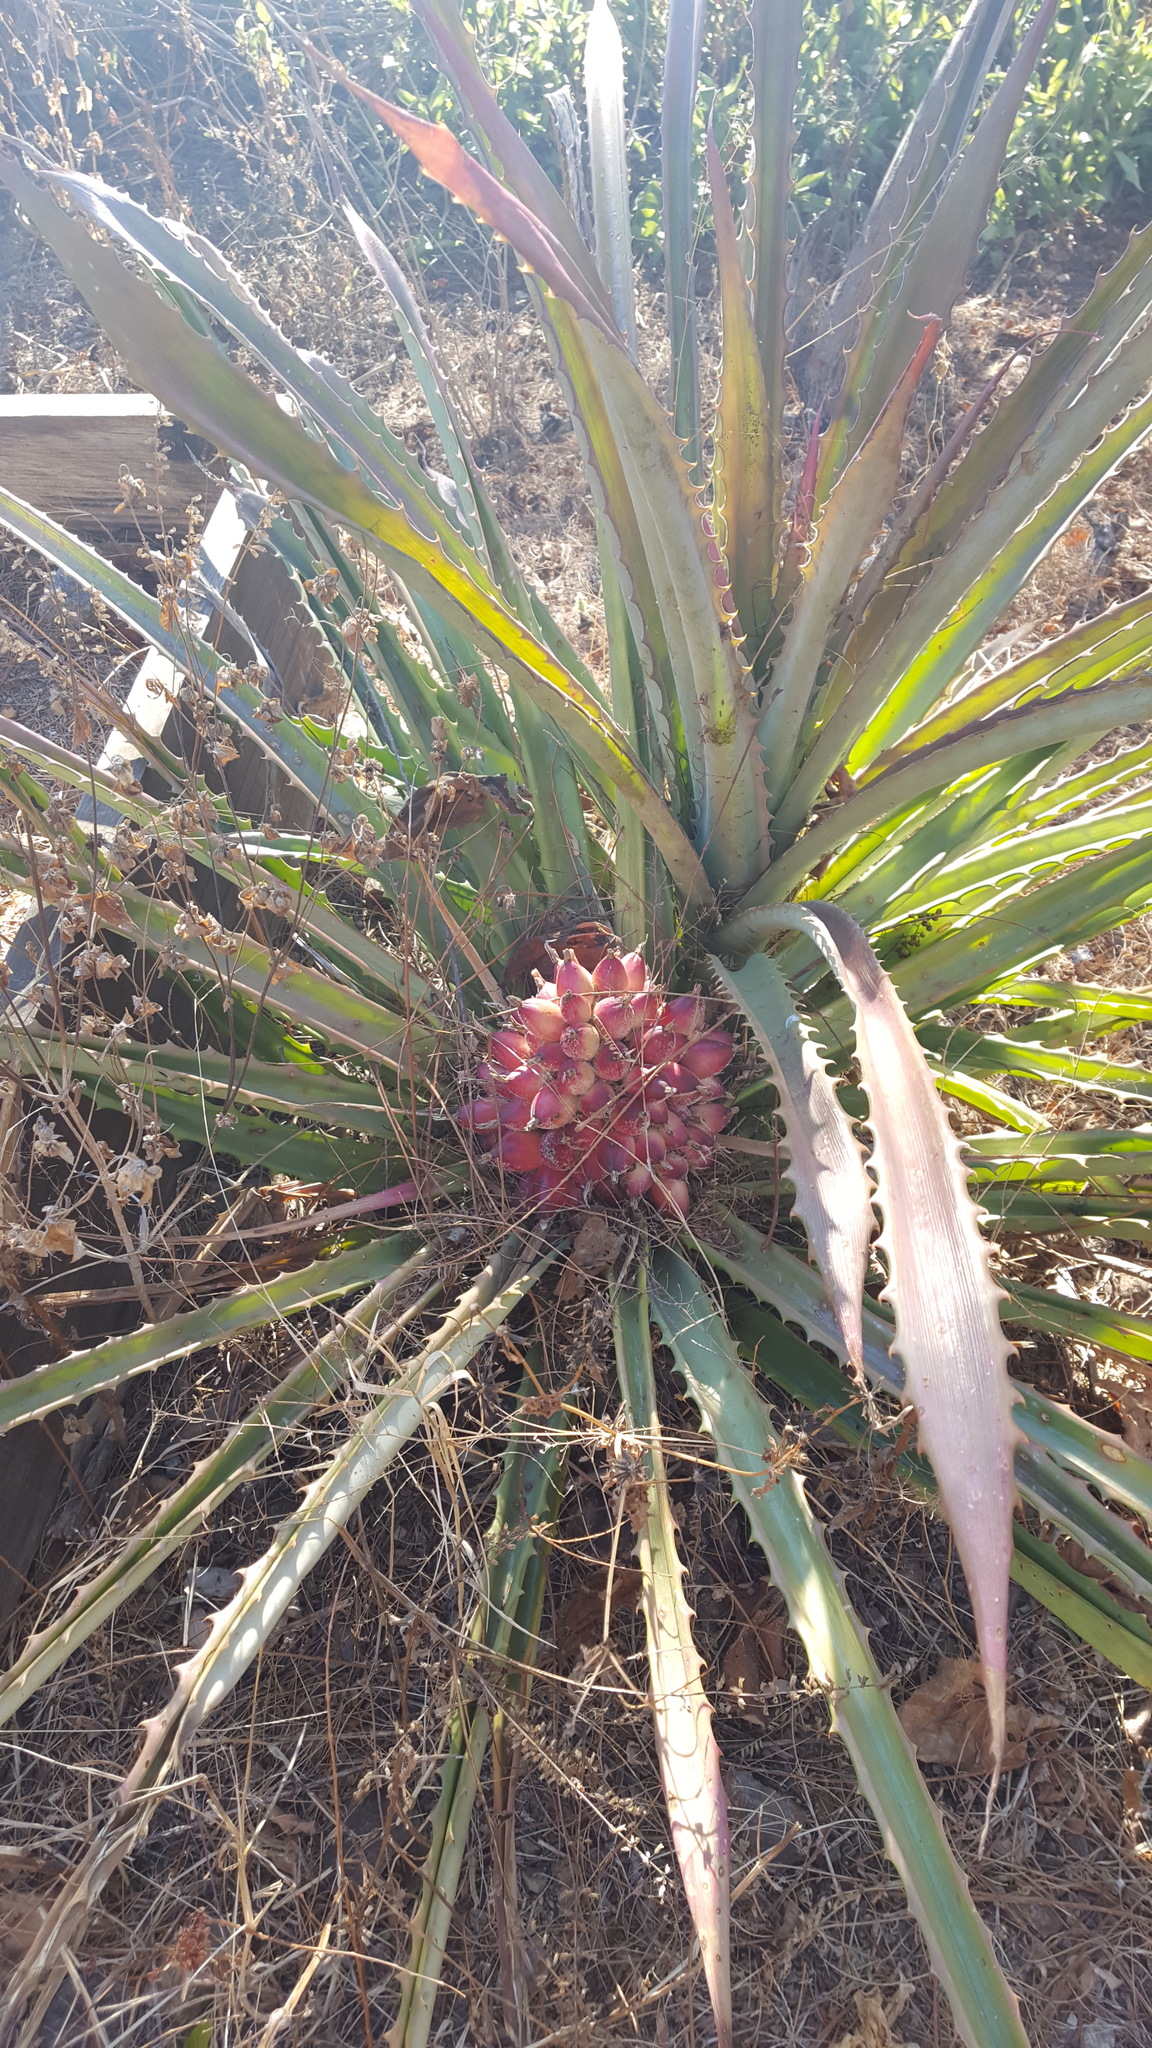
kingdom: Plantae
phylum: Tracheophyta
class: Liliopsida
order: Poales
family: Bromeliaceae
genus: Bromelia
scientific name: Bromelia hemisphaerica
